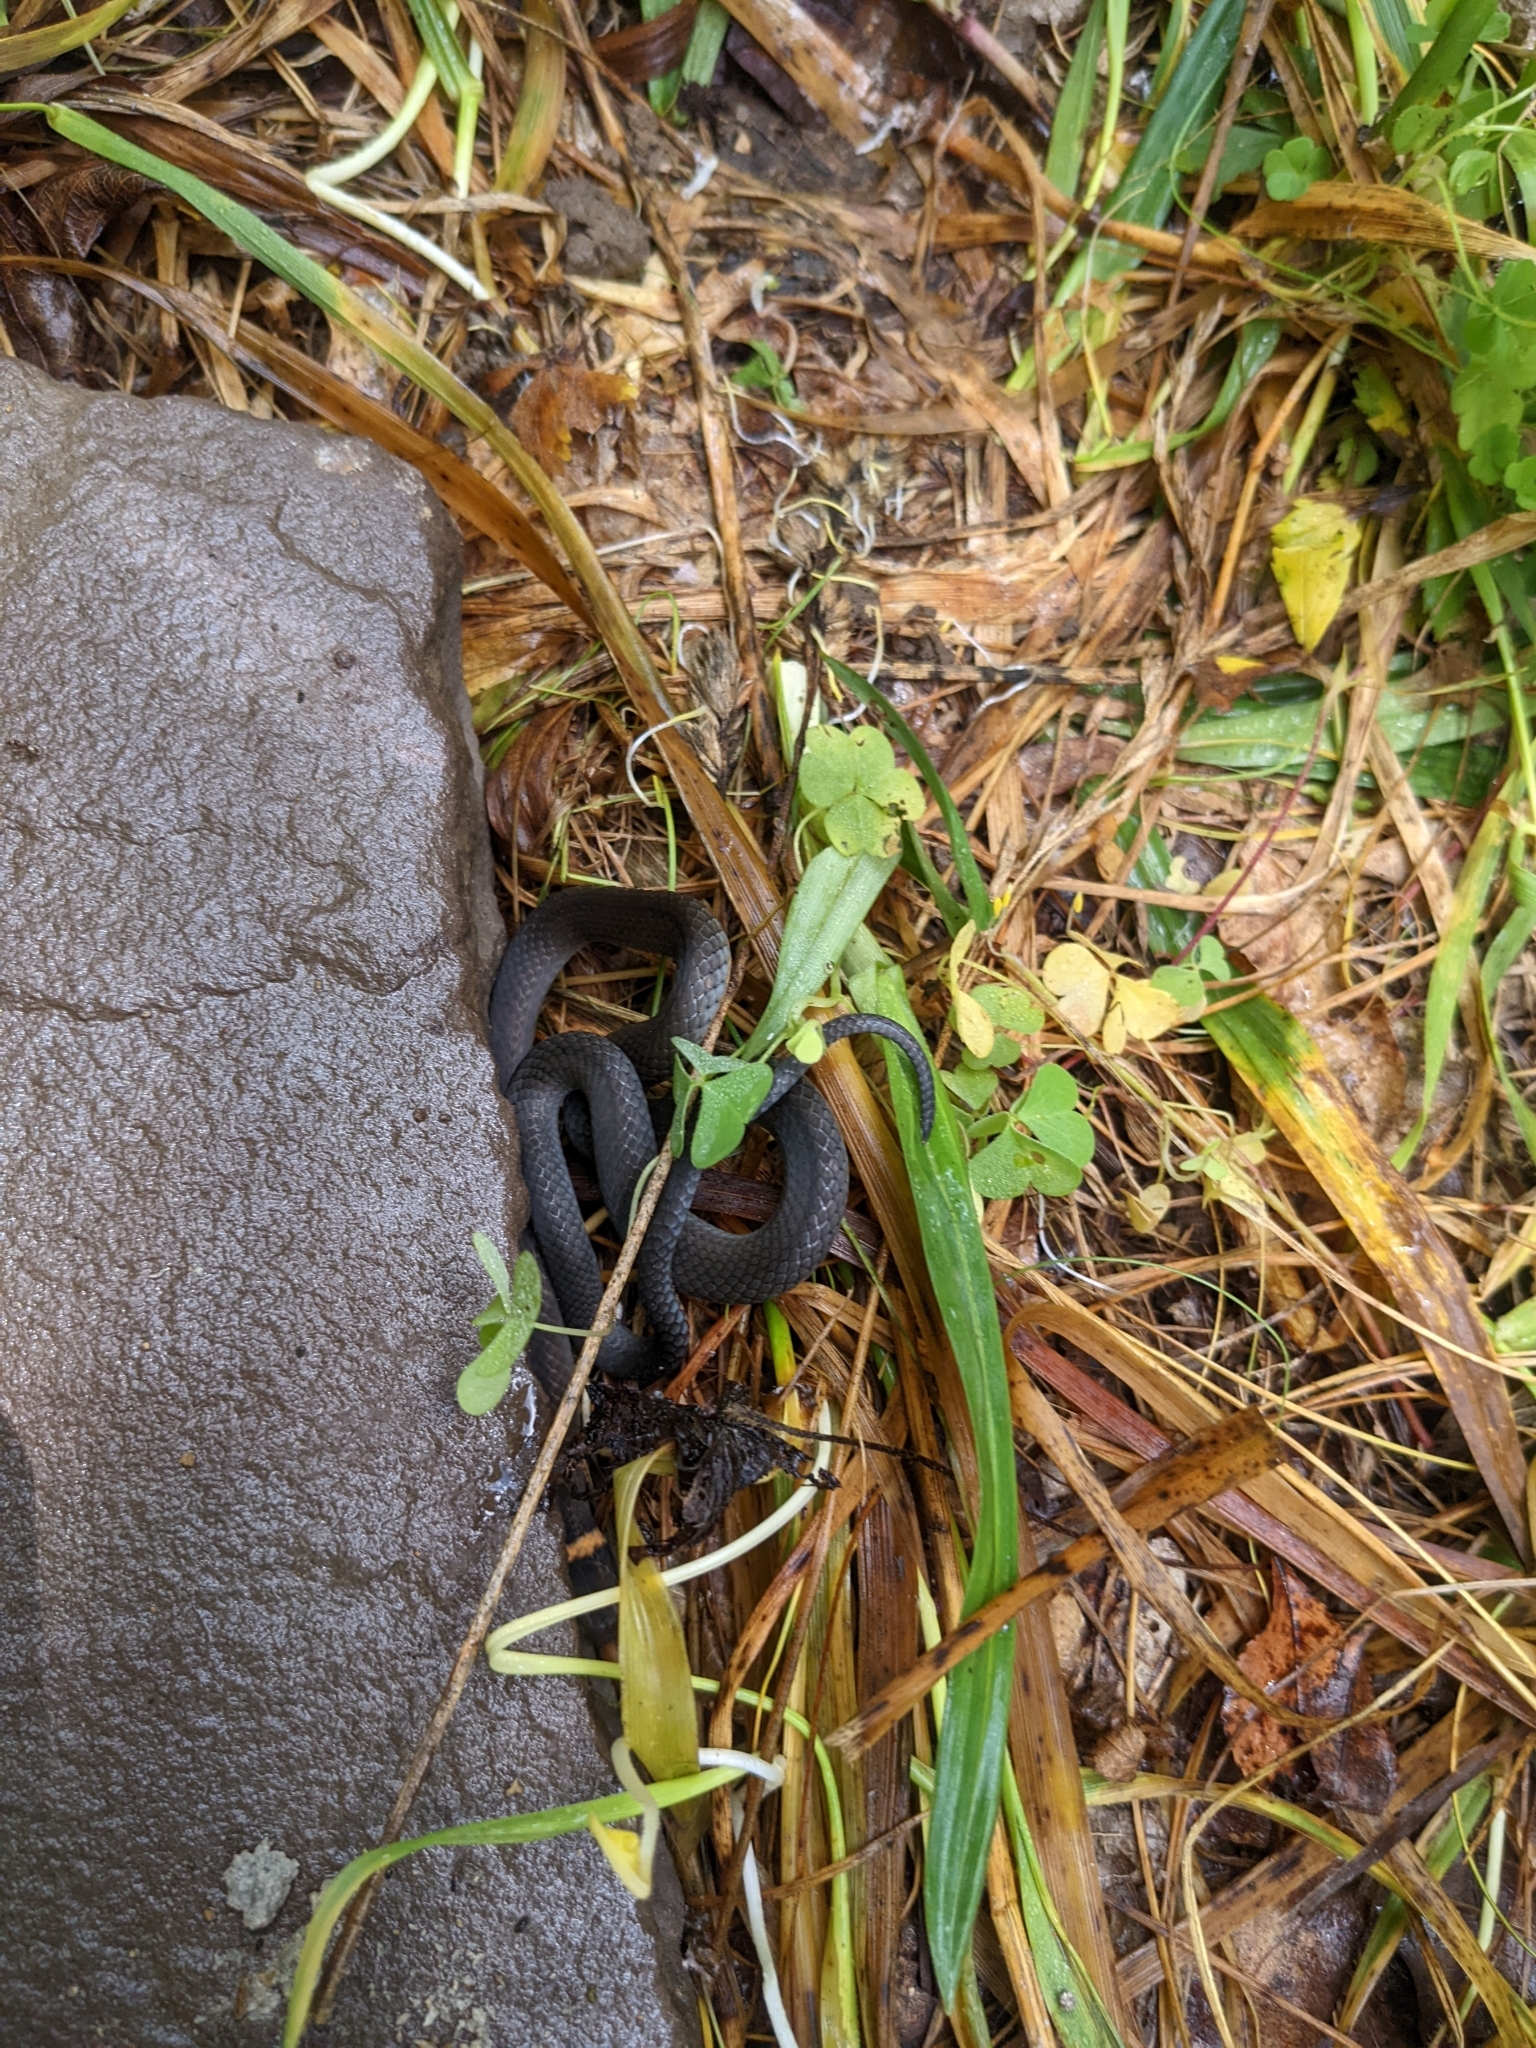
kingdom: Animalia
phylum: Chordata
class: Squamata
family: Colubridae
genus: Diadophis
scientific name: Diadophis punctatus
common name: Ringneck snake
